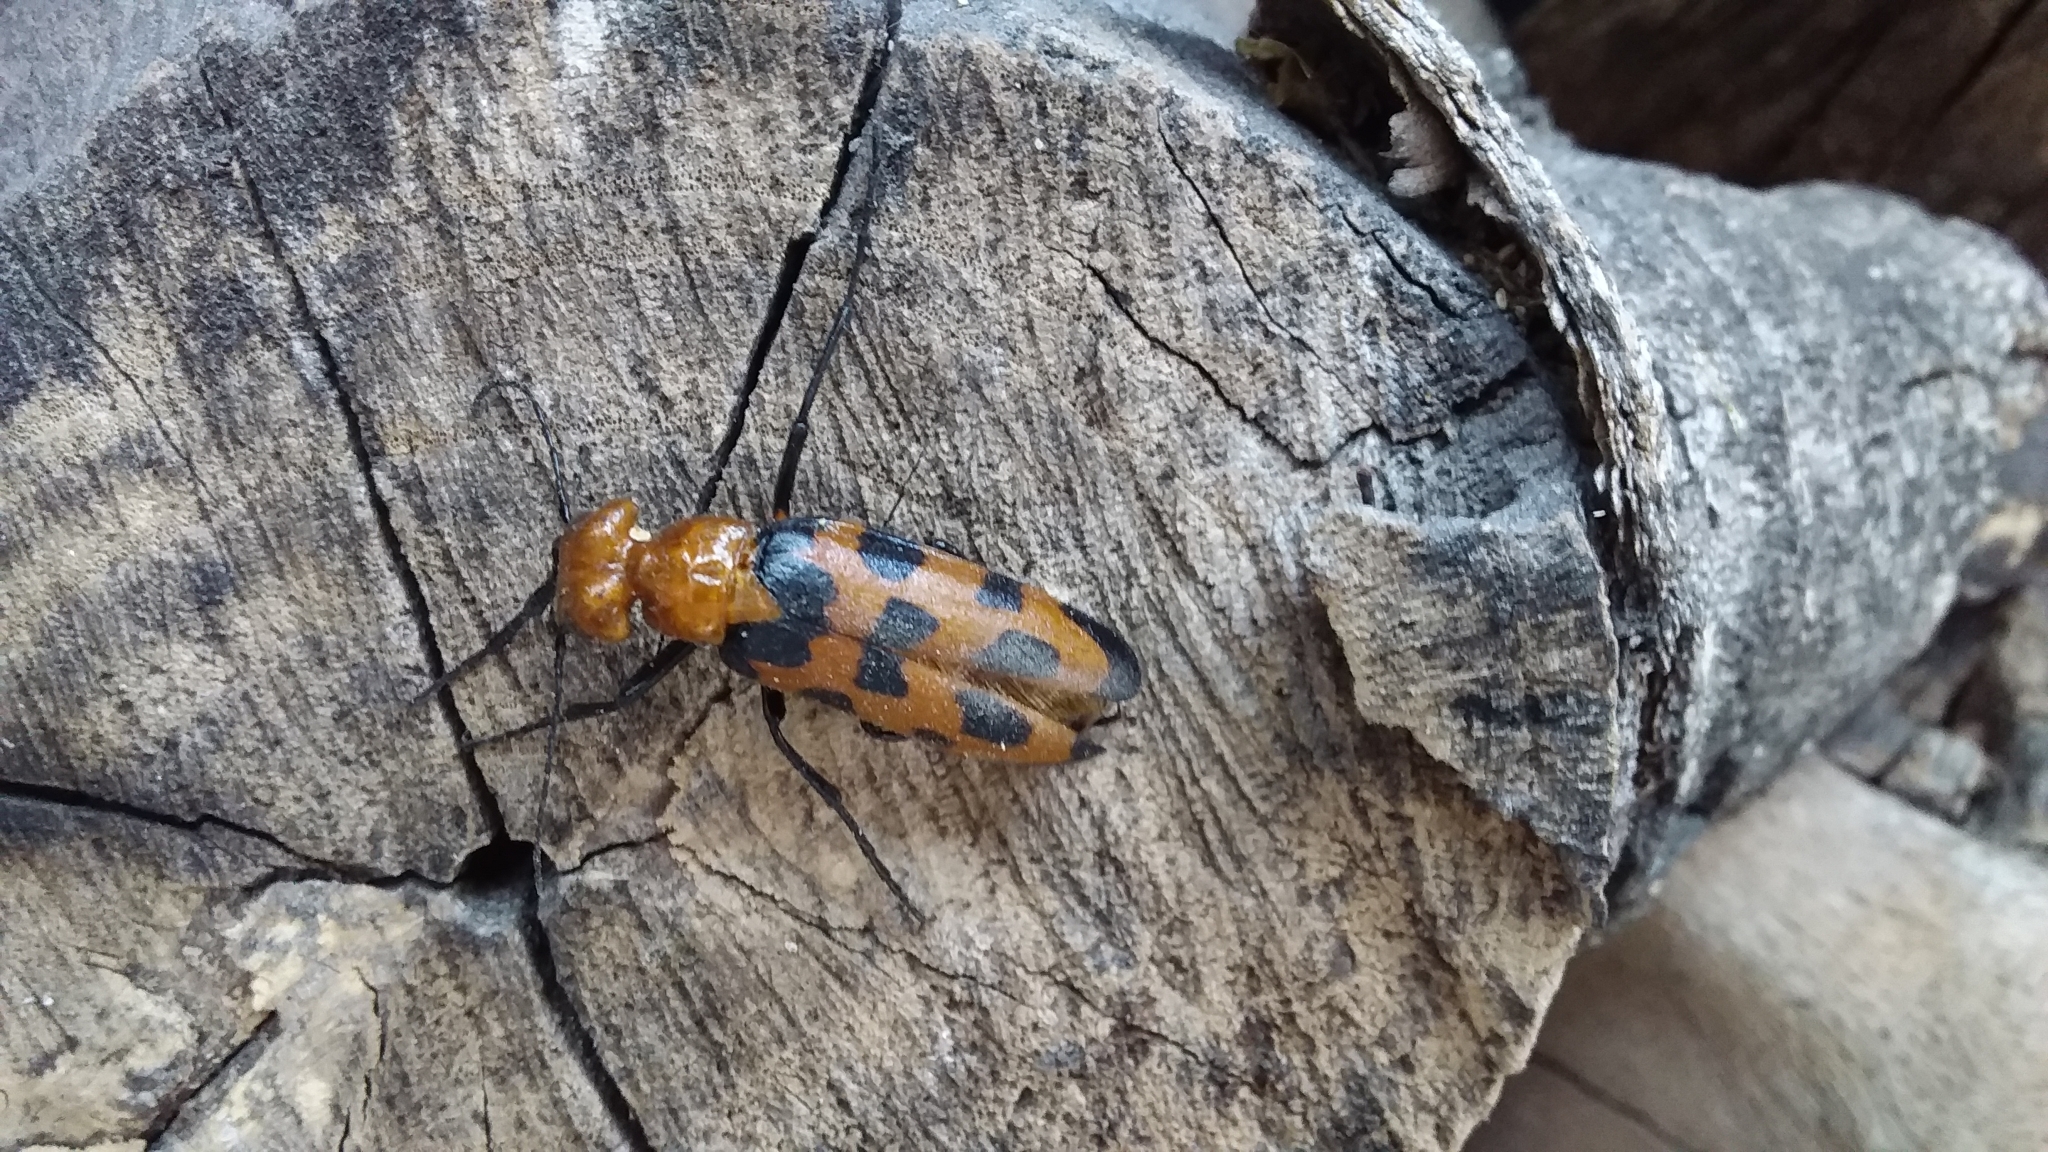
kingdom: Animalia
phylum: Arthropoda
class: Insecta
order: Coleoptera
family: Meloidae
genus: Cissites
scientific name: Cissites auriculata
